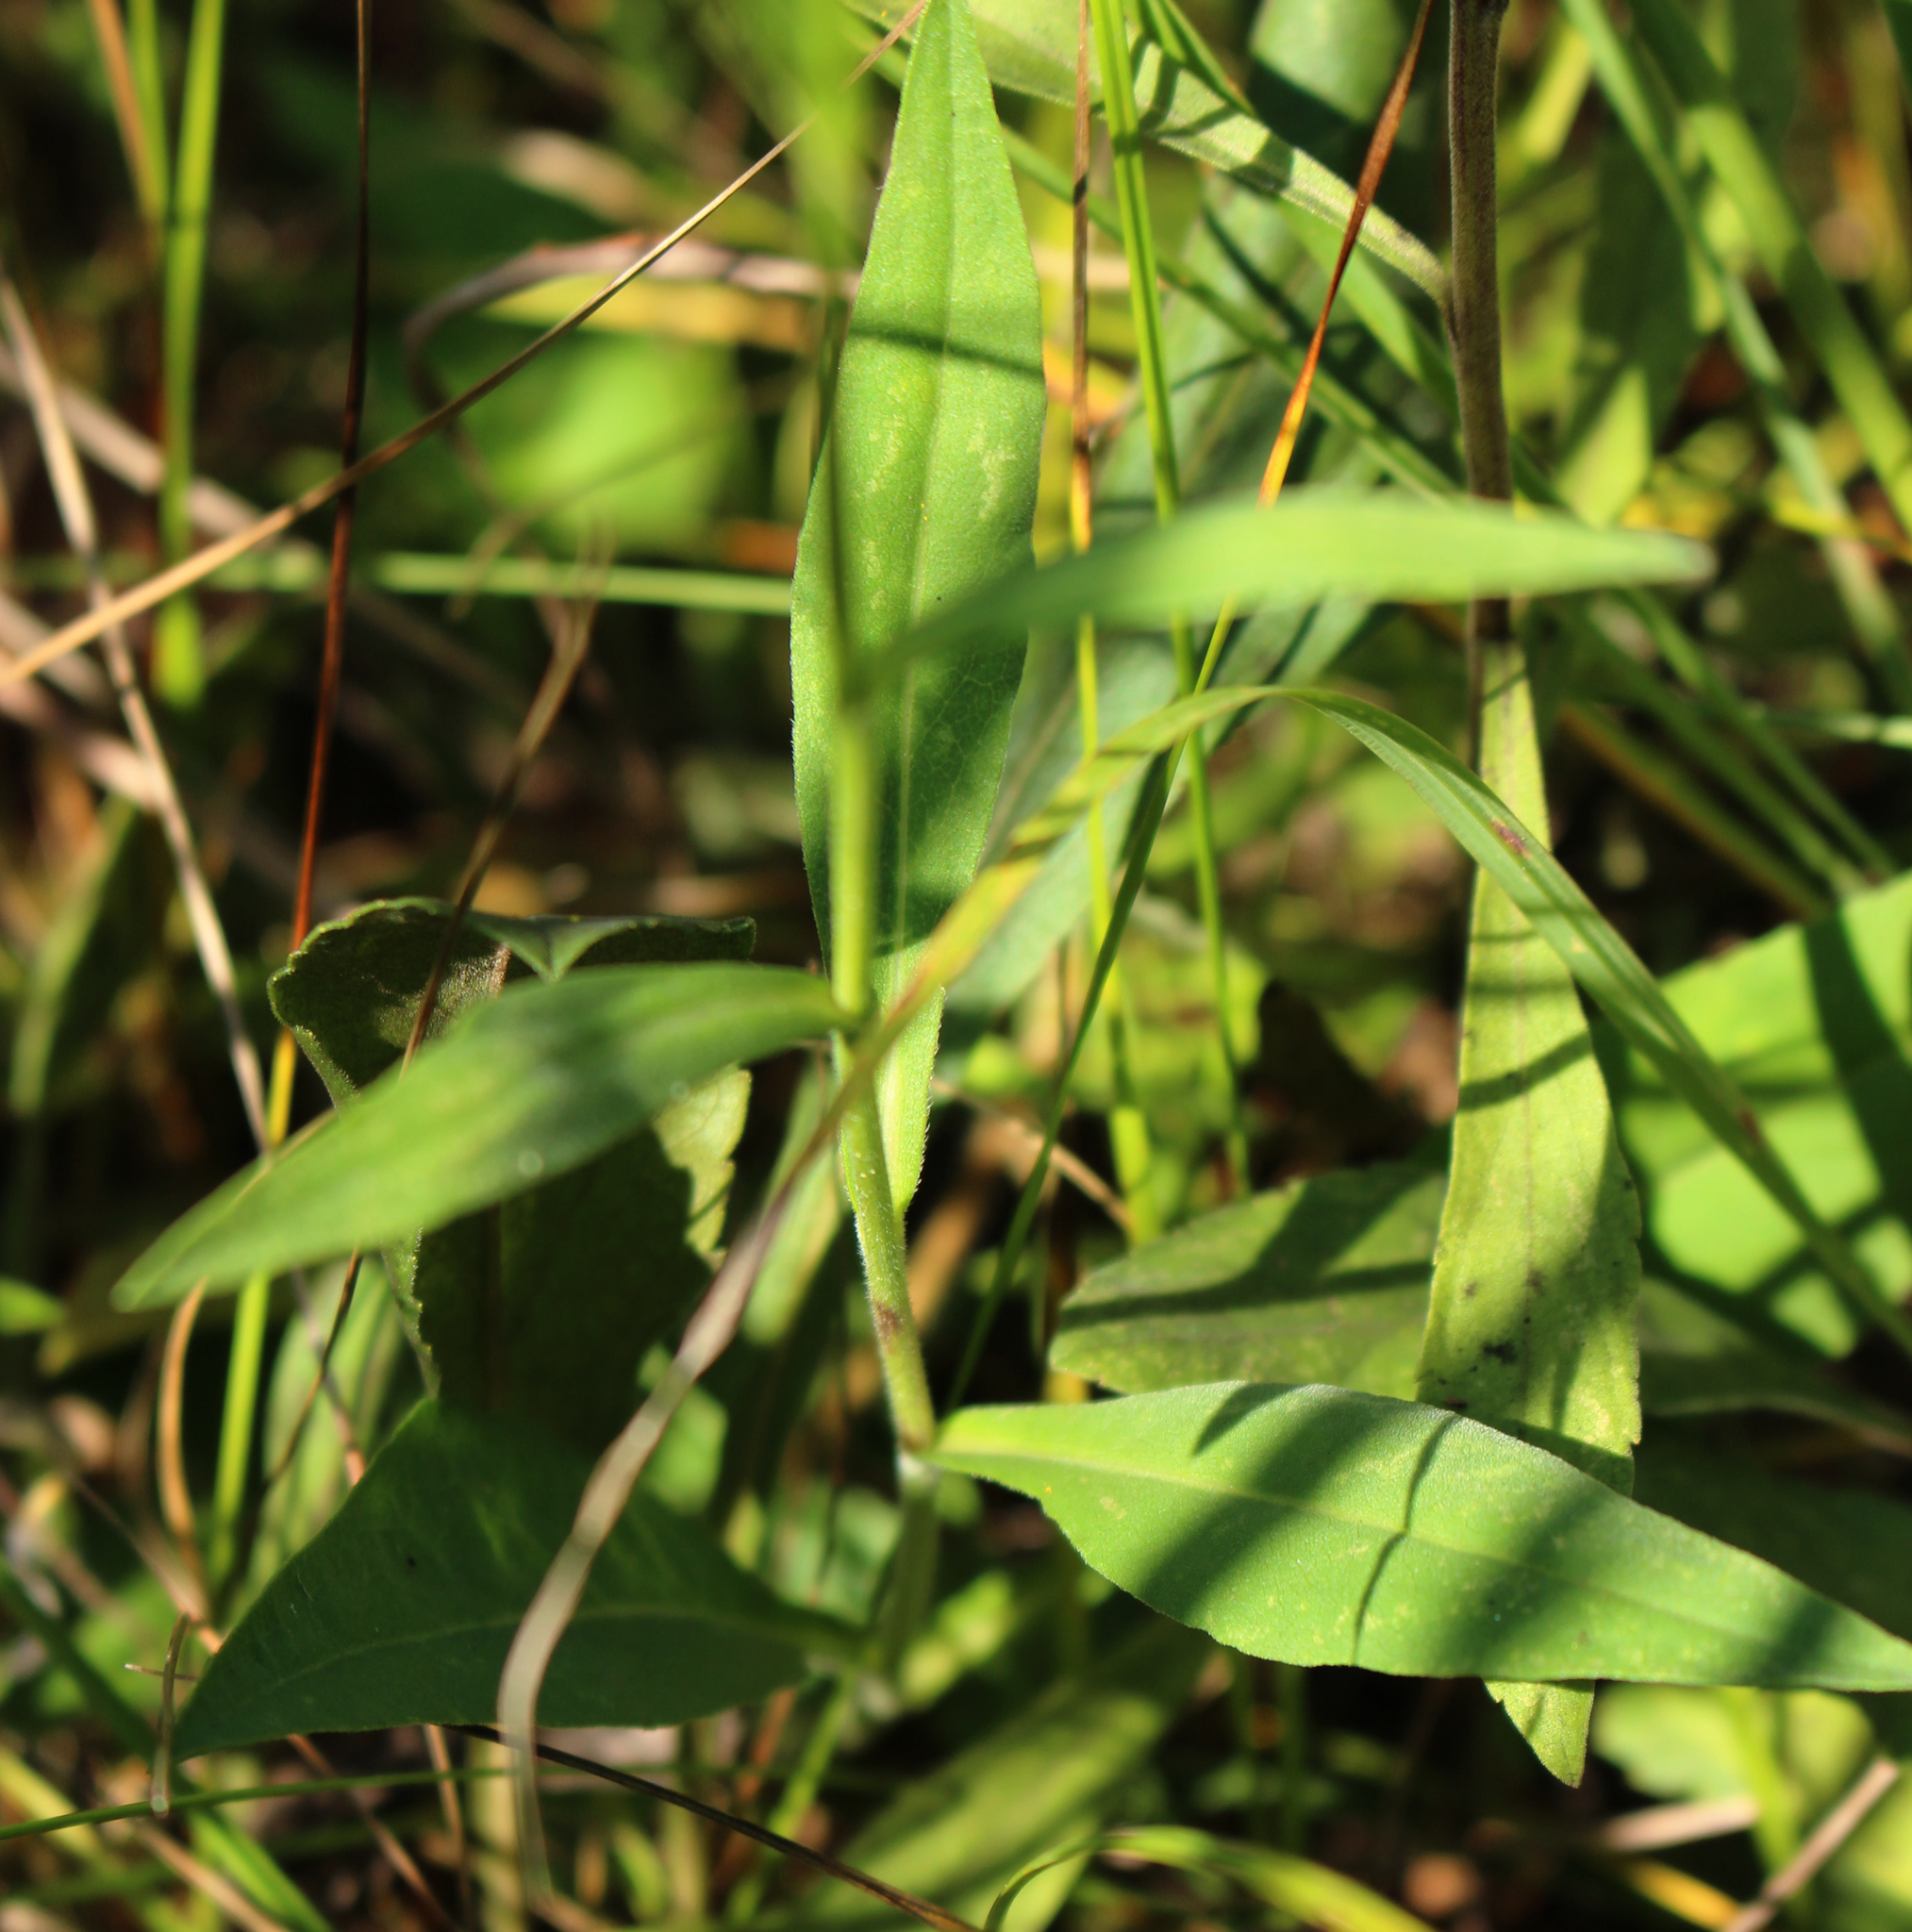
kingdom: Plantae
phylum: Tracheophyta
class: Magnoliopsida
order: Asterales
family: Asteraceae
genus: Symphyotrichum
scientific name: Symphyotrichum oolentangiense
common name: Azure aster
